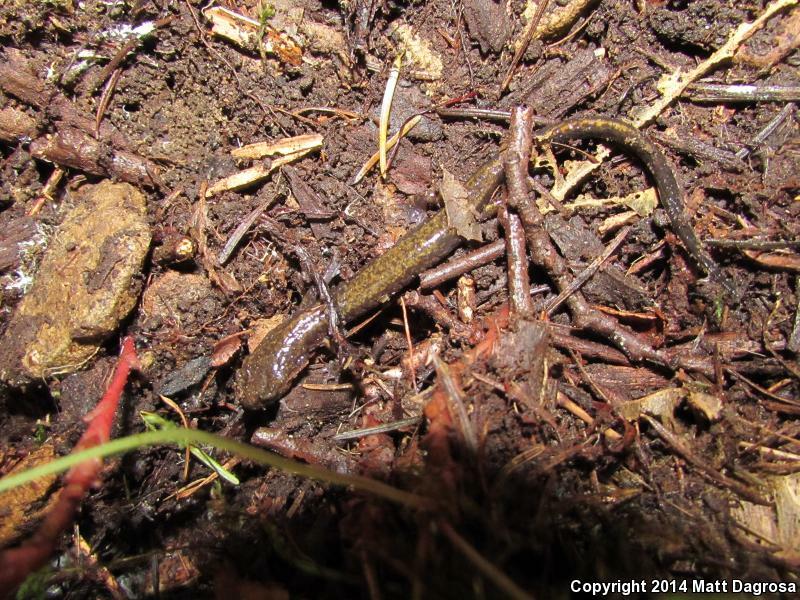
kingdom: Animalia
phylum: Chordata
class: Amphibia
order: Caudata
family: Plethodontidae
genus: Plethodon
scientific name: Plethodon dunni
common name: Dunn's salamander
